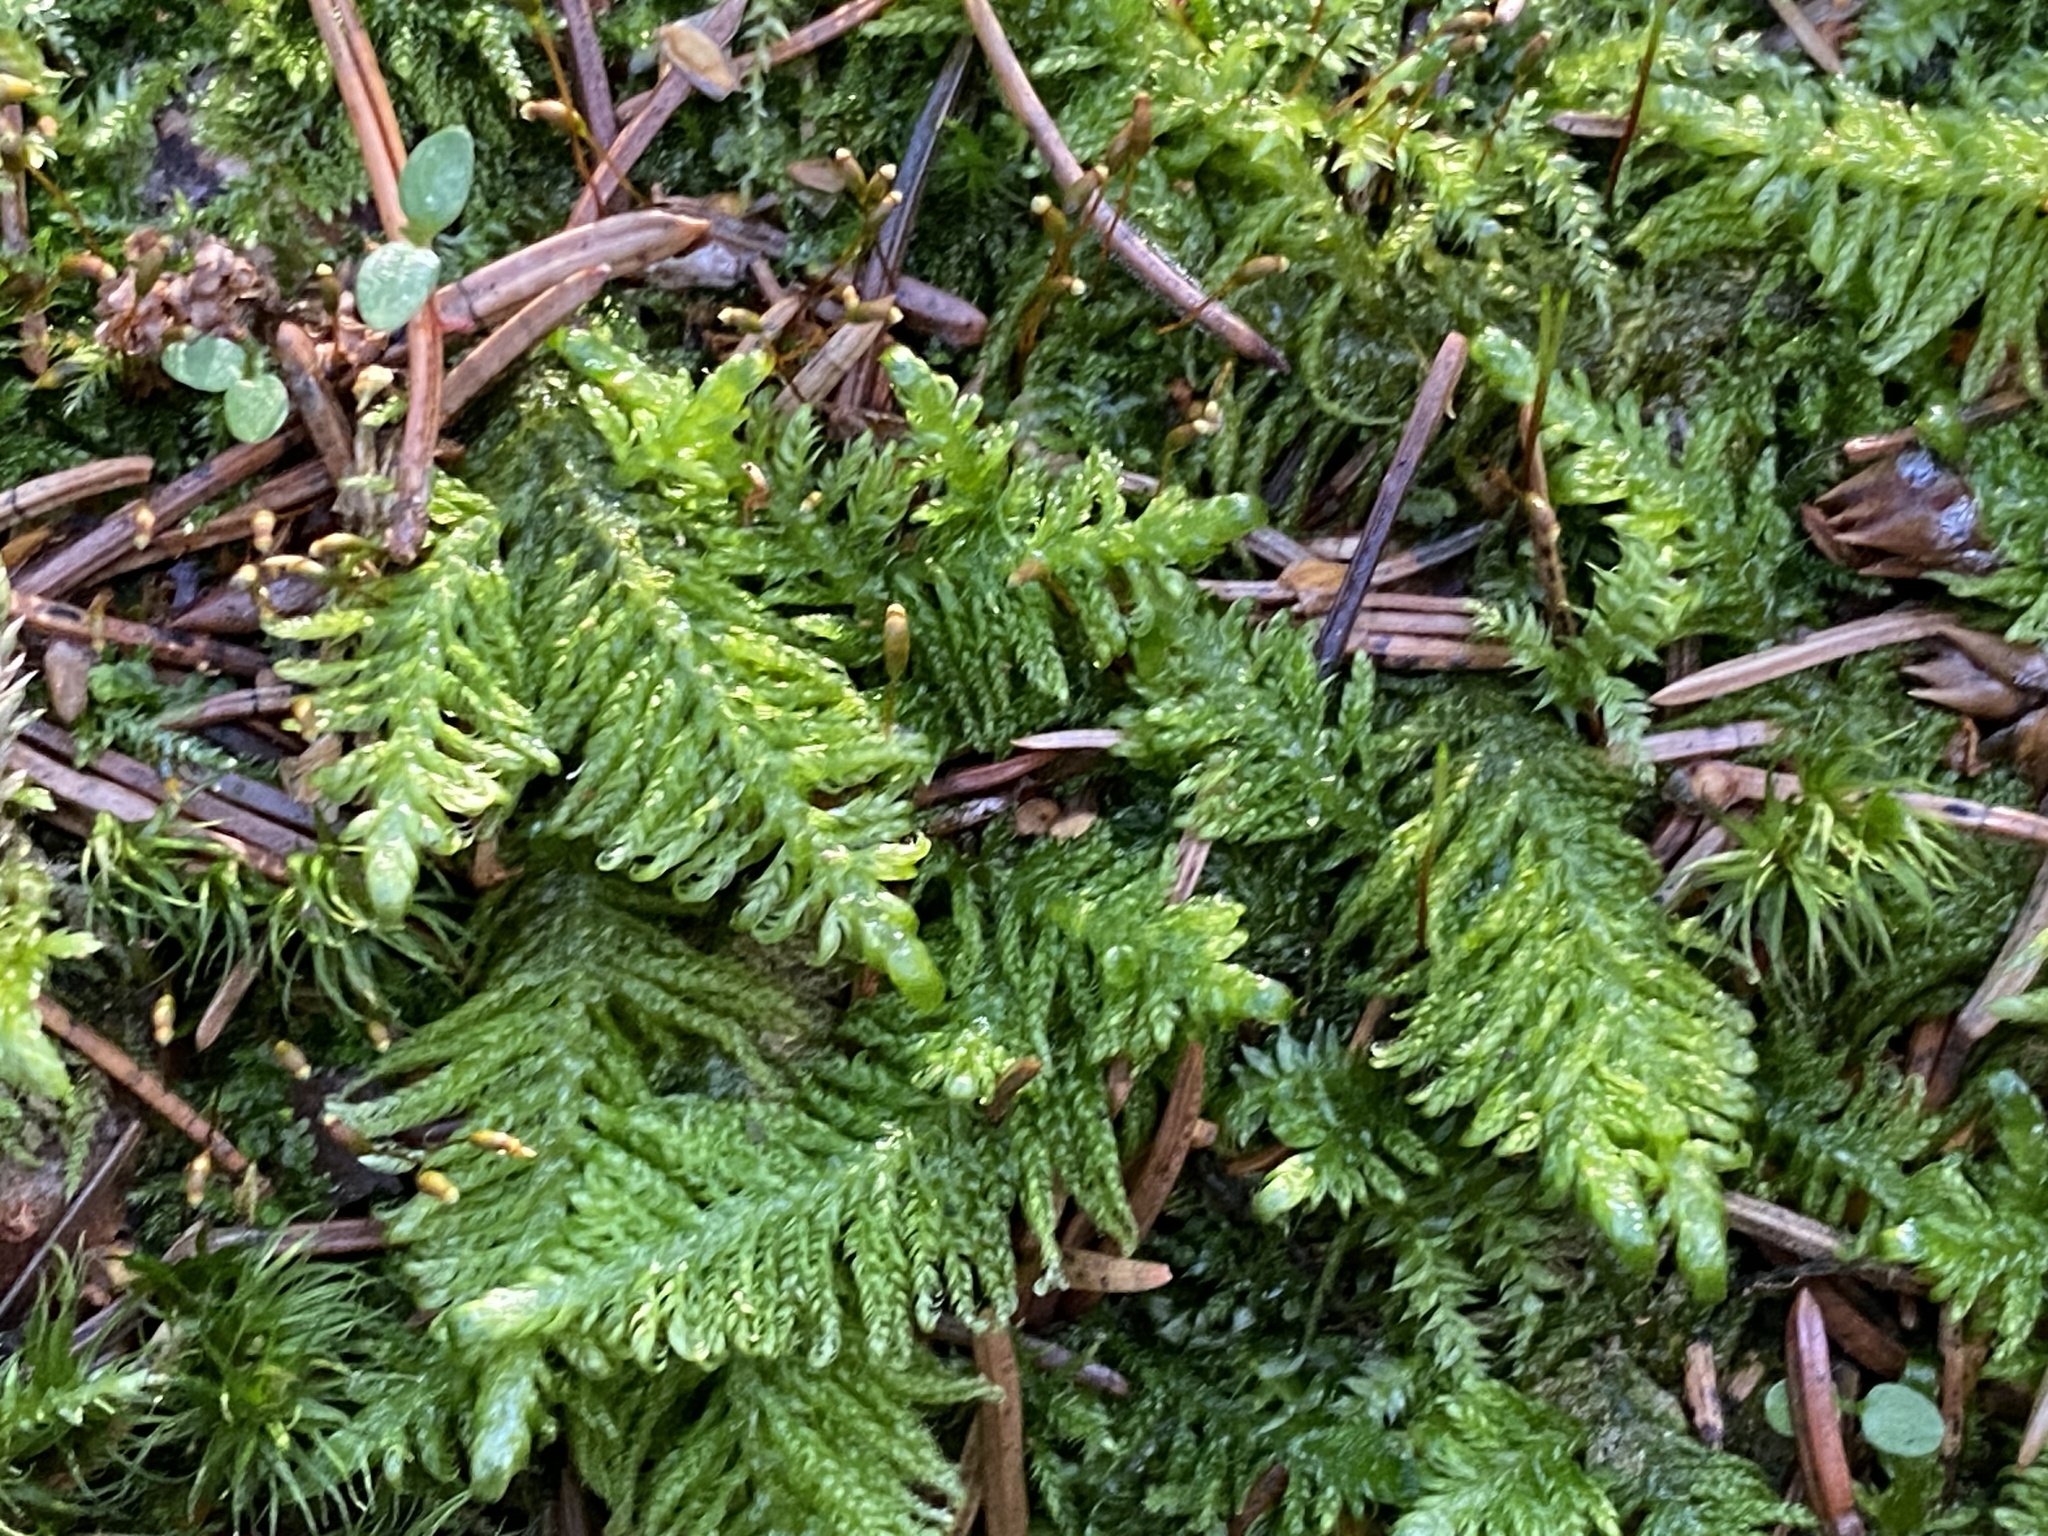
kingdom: Plantae
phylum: Bryophyta
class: Bryopsida
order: Hypnales
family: Pylaisiaceae
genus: Ptilium
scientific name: Ptilium crista-castrensis
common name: Knight's plume moss
